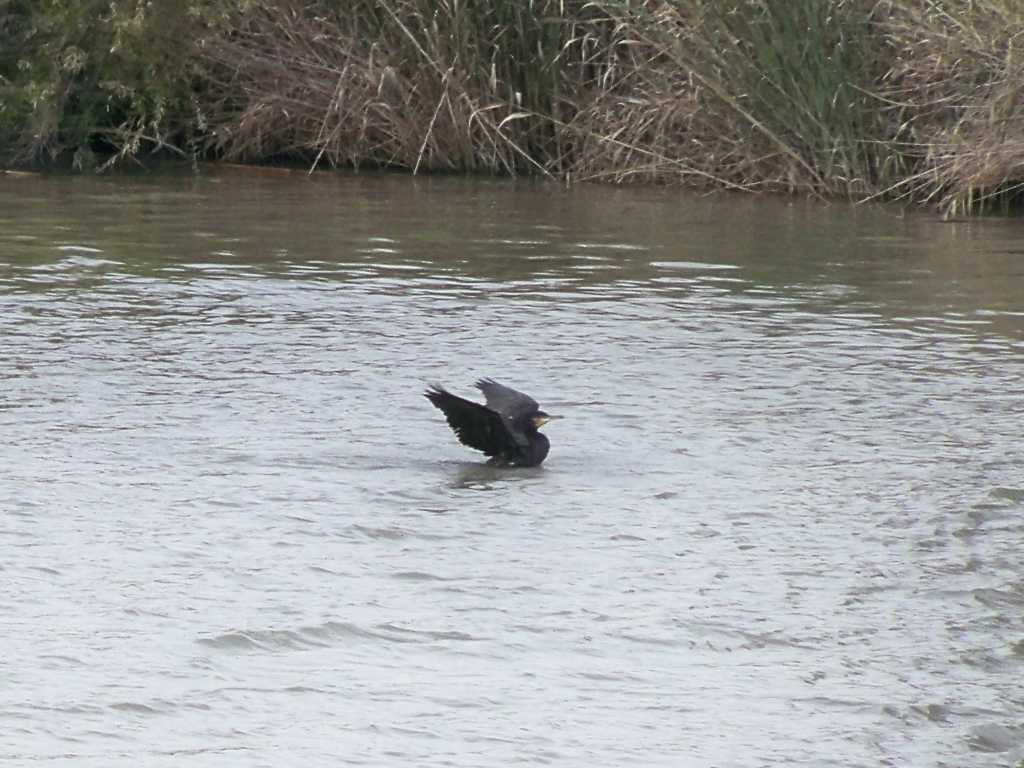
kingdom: Animalia
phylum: Chordata
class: Aves
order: Suliformes
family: Phalacrocoracidae
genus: Phalacrocorax
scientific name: Phalacrocorax carbo
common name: Great cormorant
